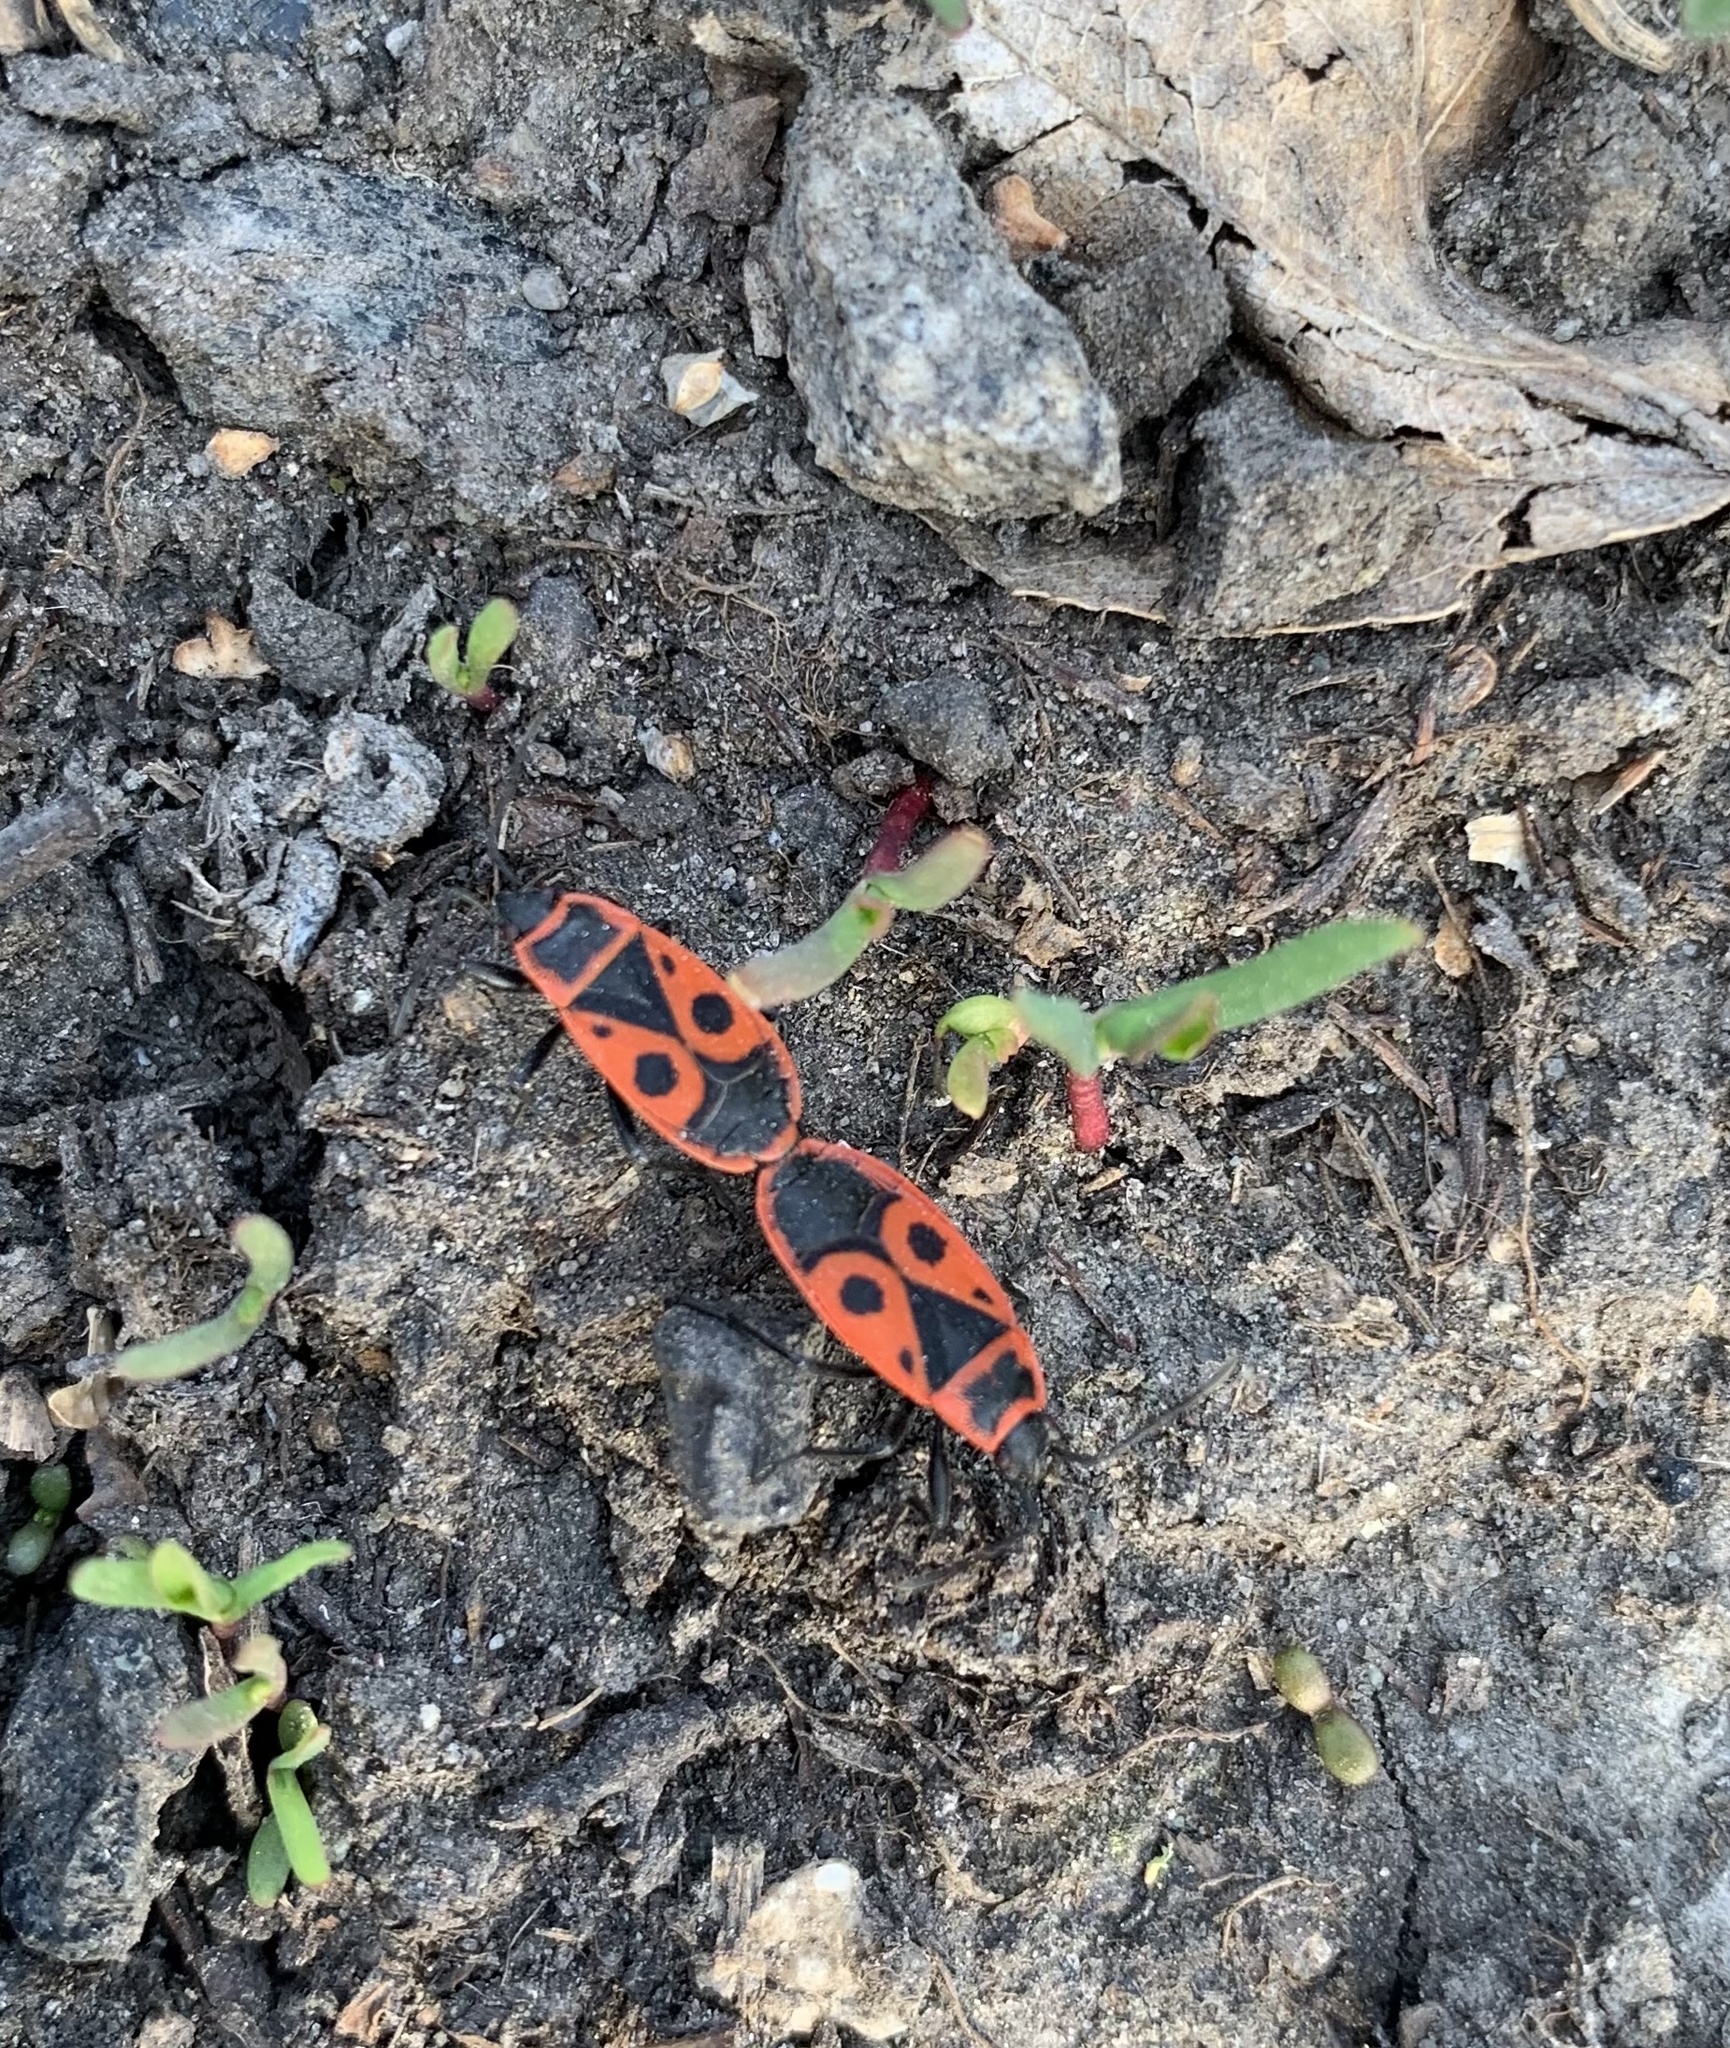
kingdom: Animalia
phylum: Arthropoda
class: Insecta
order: Hemiptera
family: Pyrrhocoridae
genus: Pyrrhocoris
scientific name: Pyrrhocoris apterus
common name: Firebug
